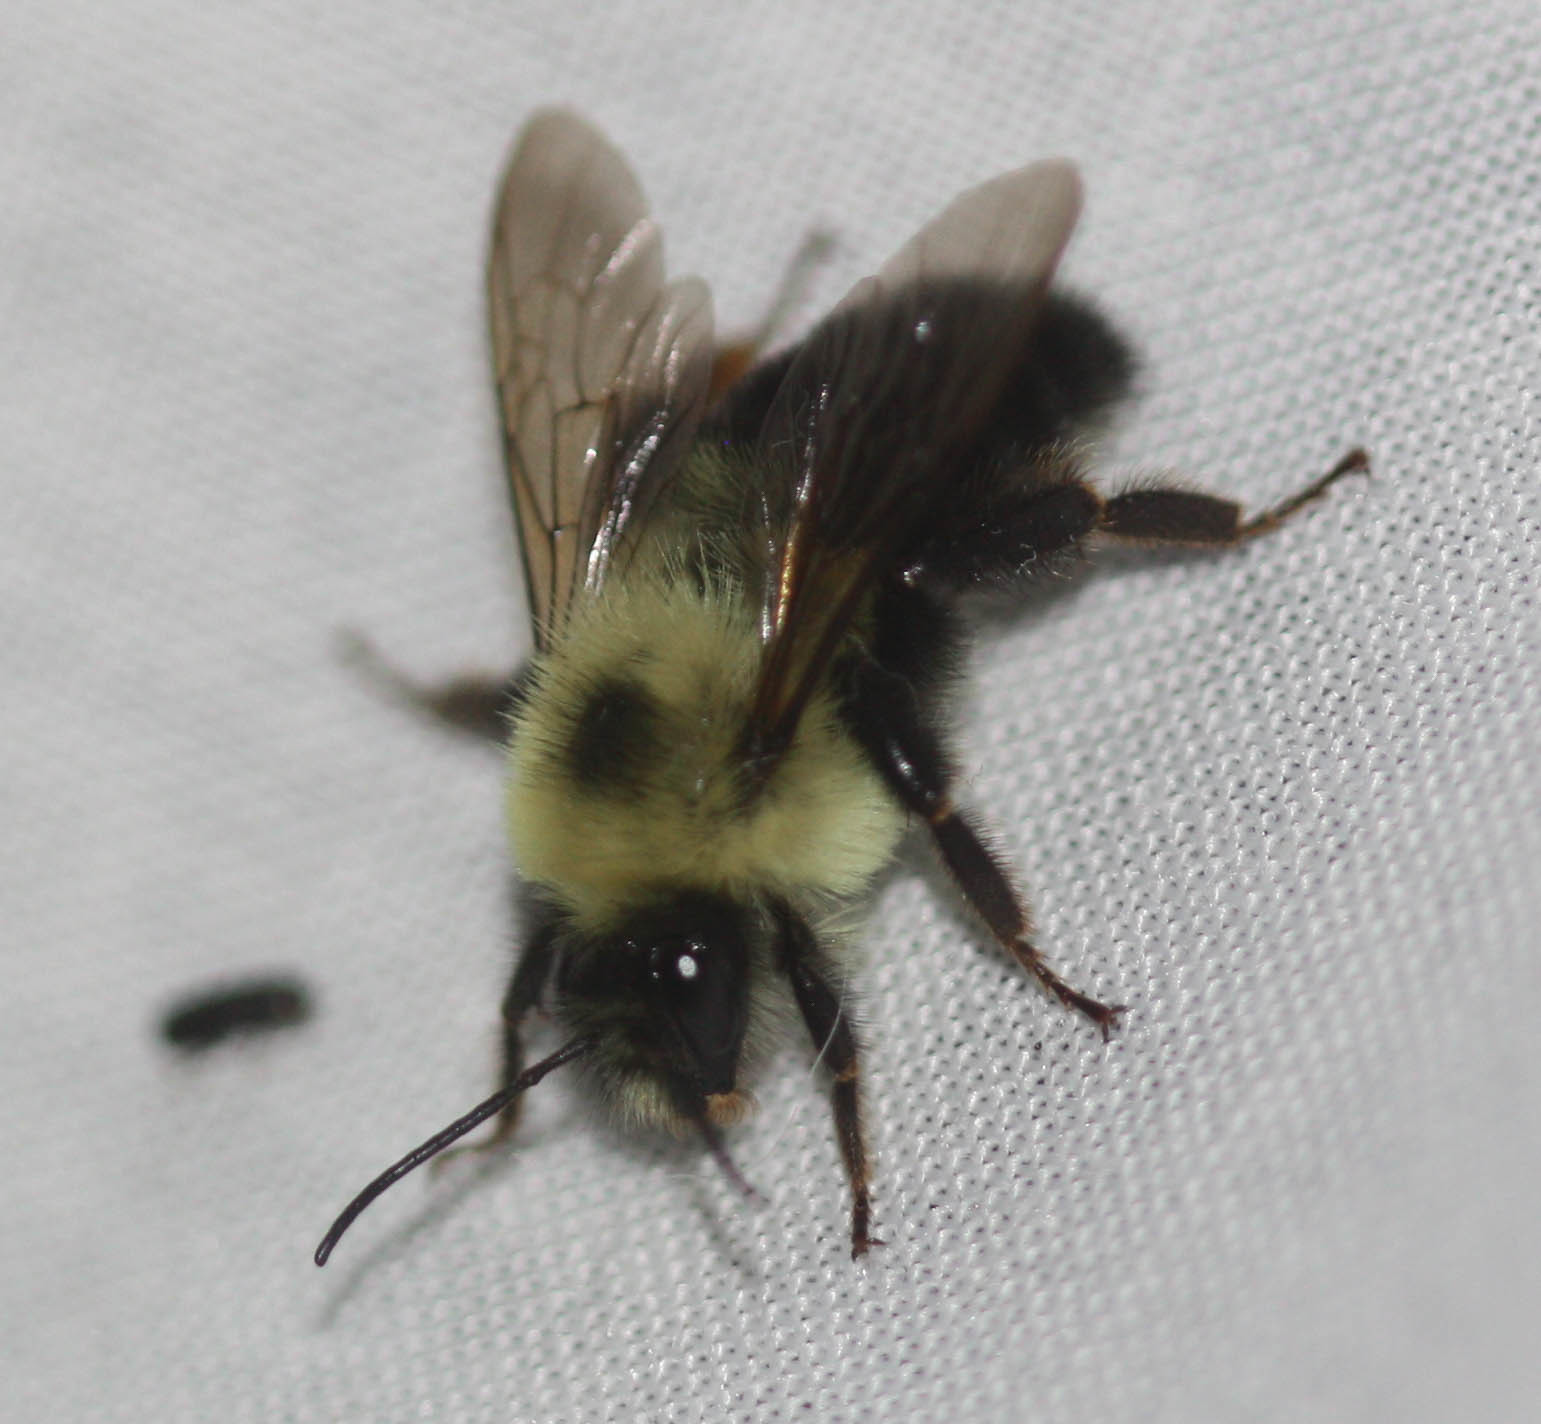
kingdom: Animalia
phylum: Arthropoda
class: Insecta
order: Hymenoptera
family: Apidae
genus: Bombus
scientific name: Bombus bimaculatus
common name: Two-spotted bumble bee
